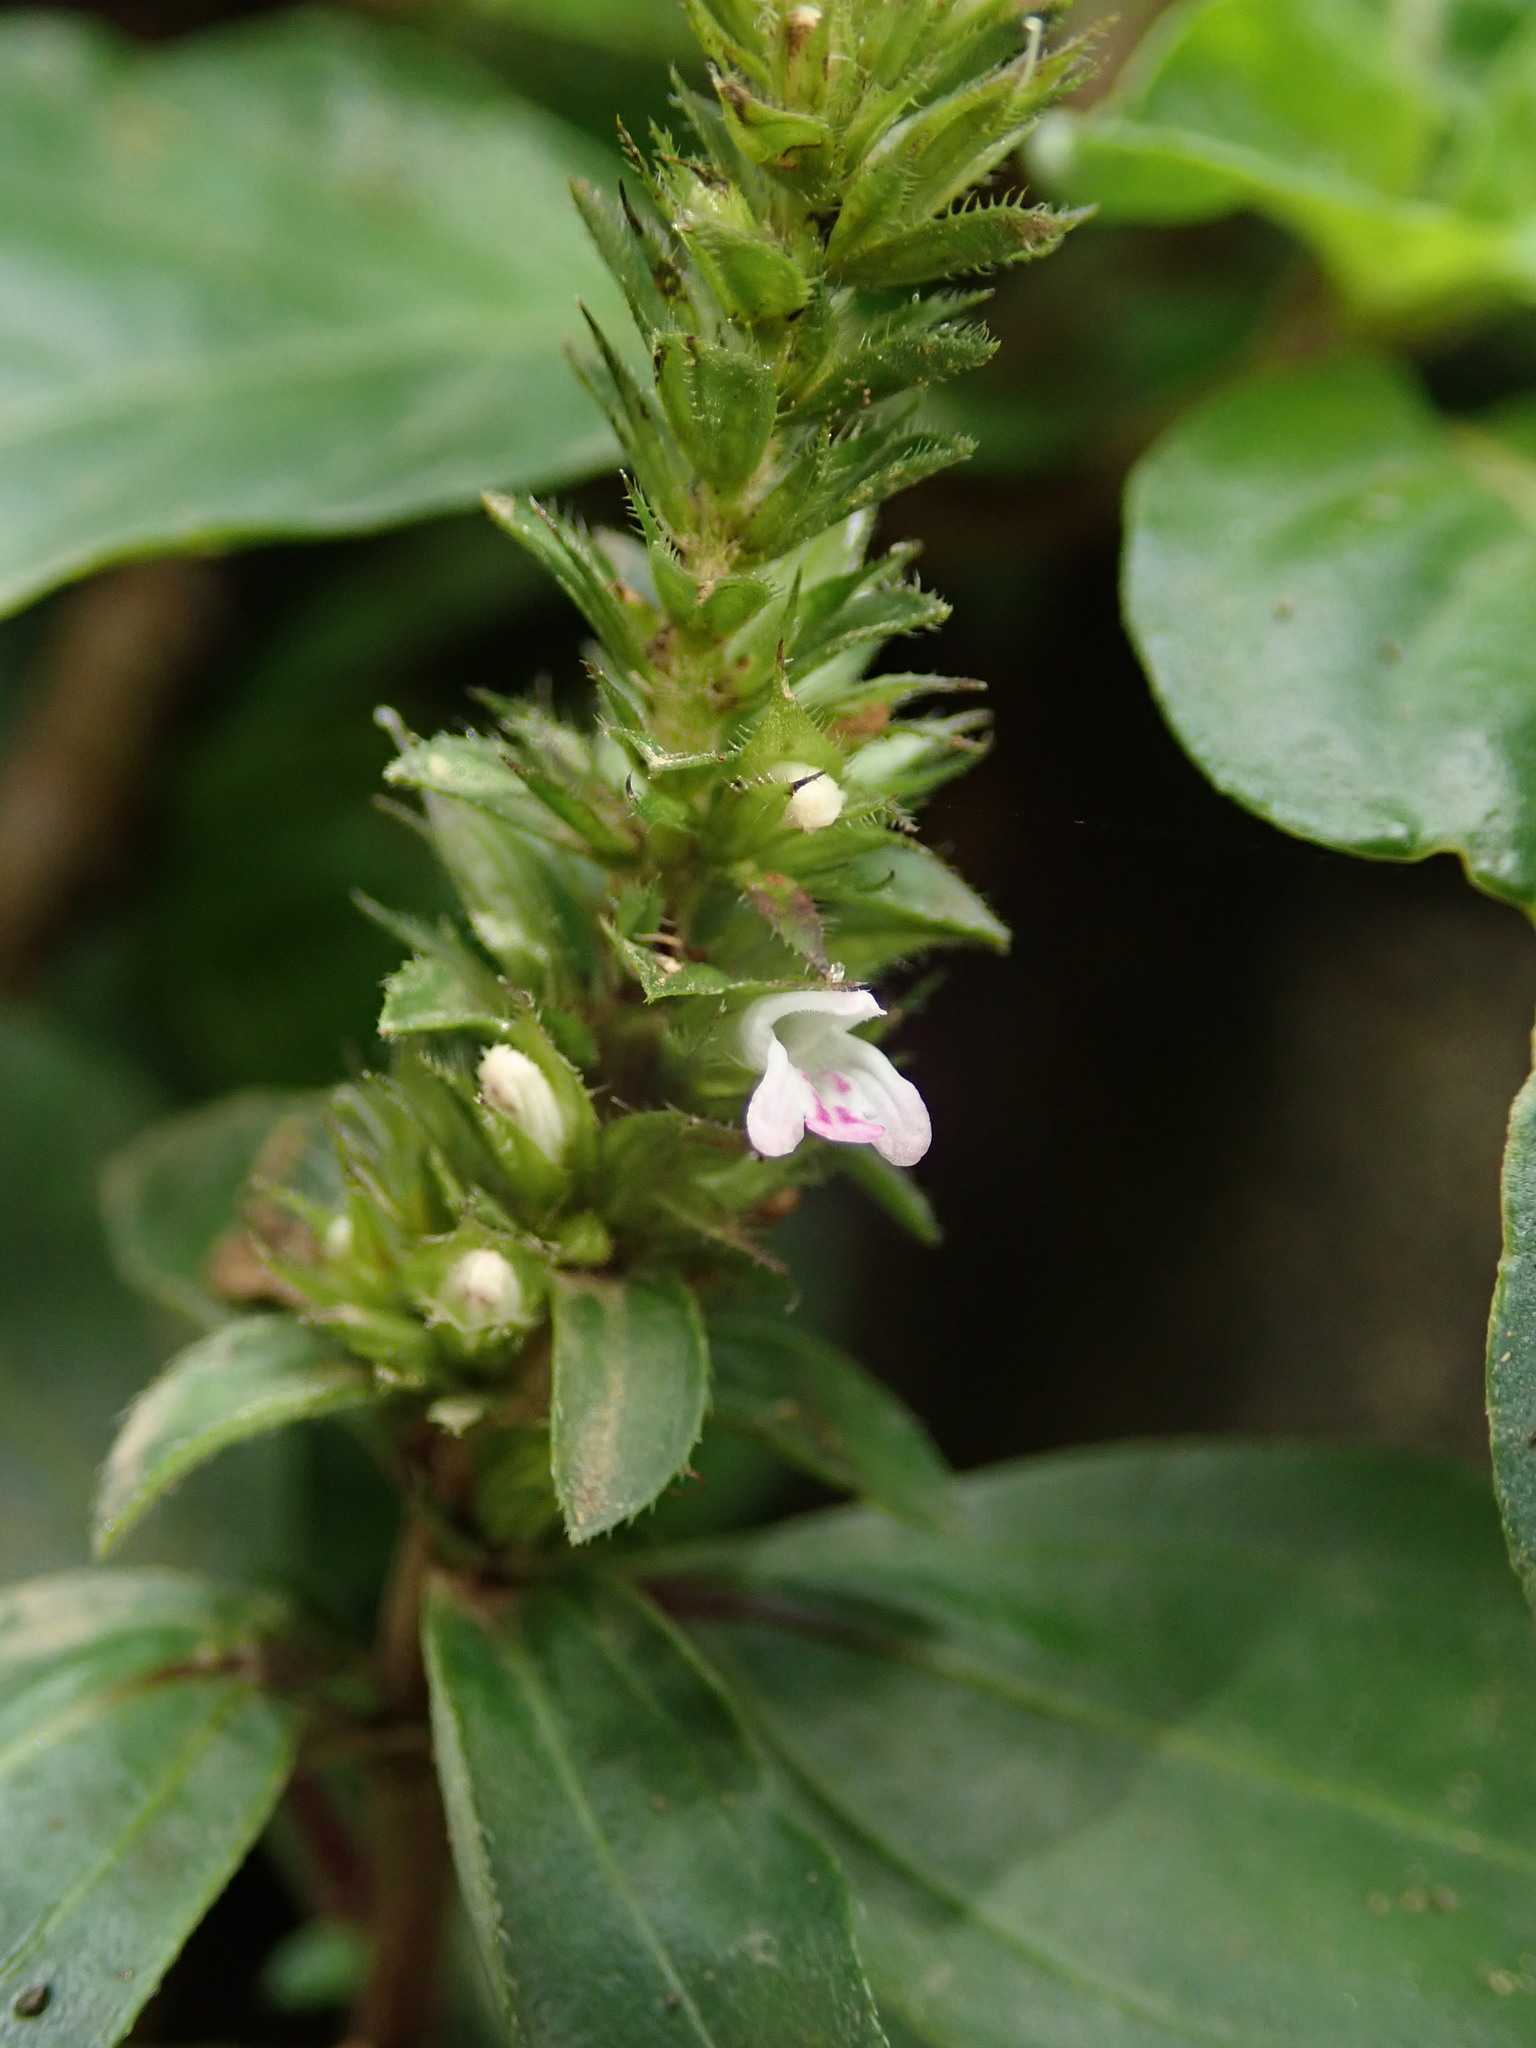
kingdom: Plantae
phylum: Tracheophyta
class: Magnoliopsida
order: Lamiales
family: Acanthaceae
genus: Lepidagathis
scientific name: Lepidagathis alopecuroidea
